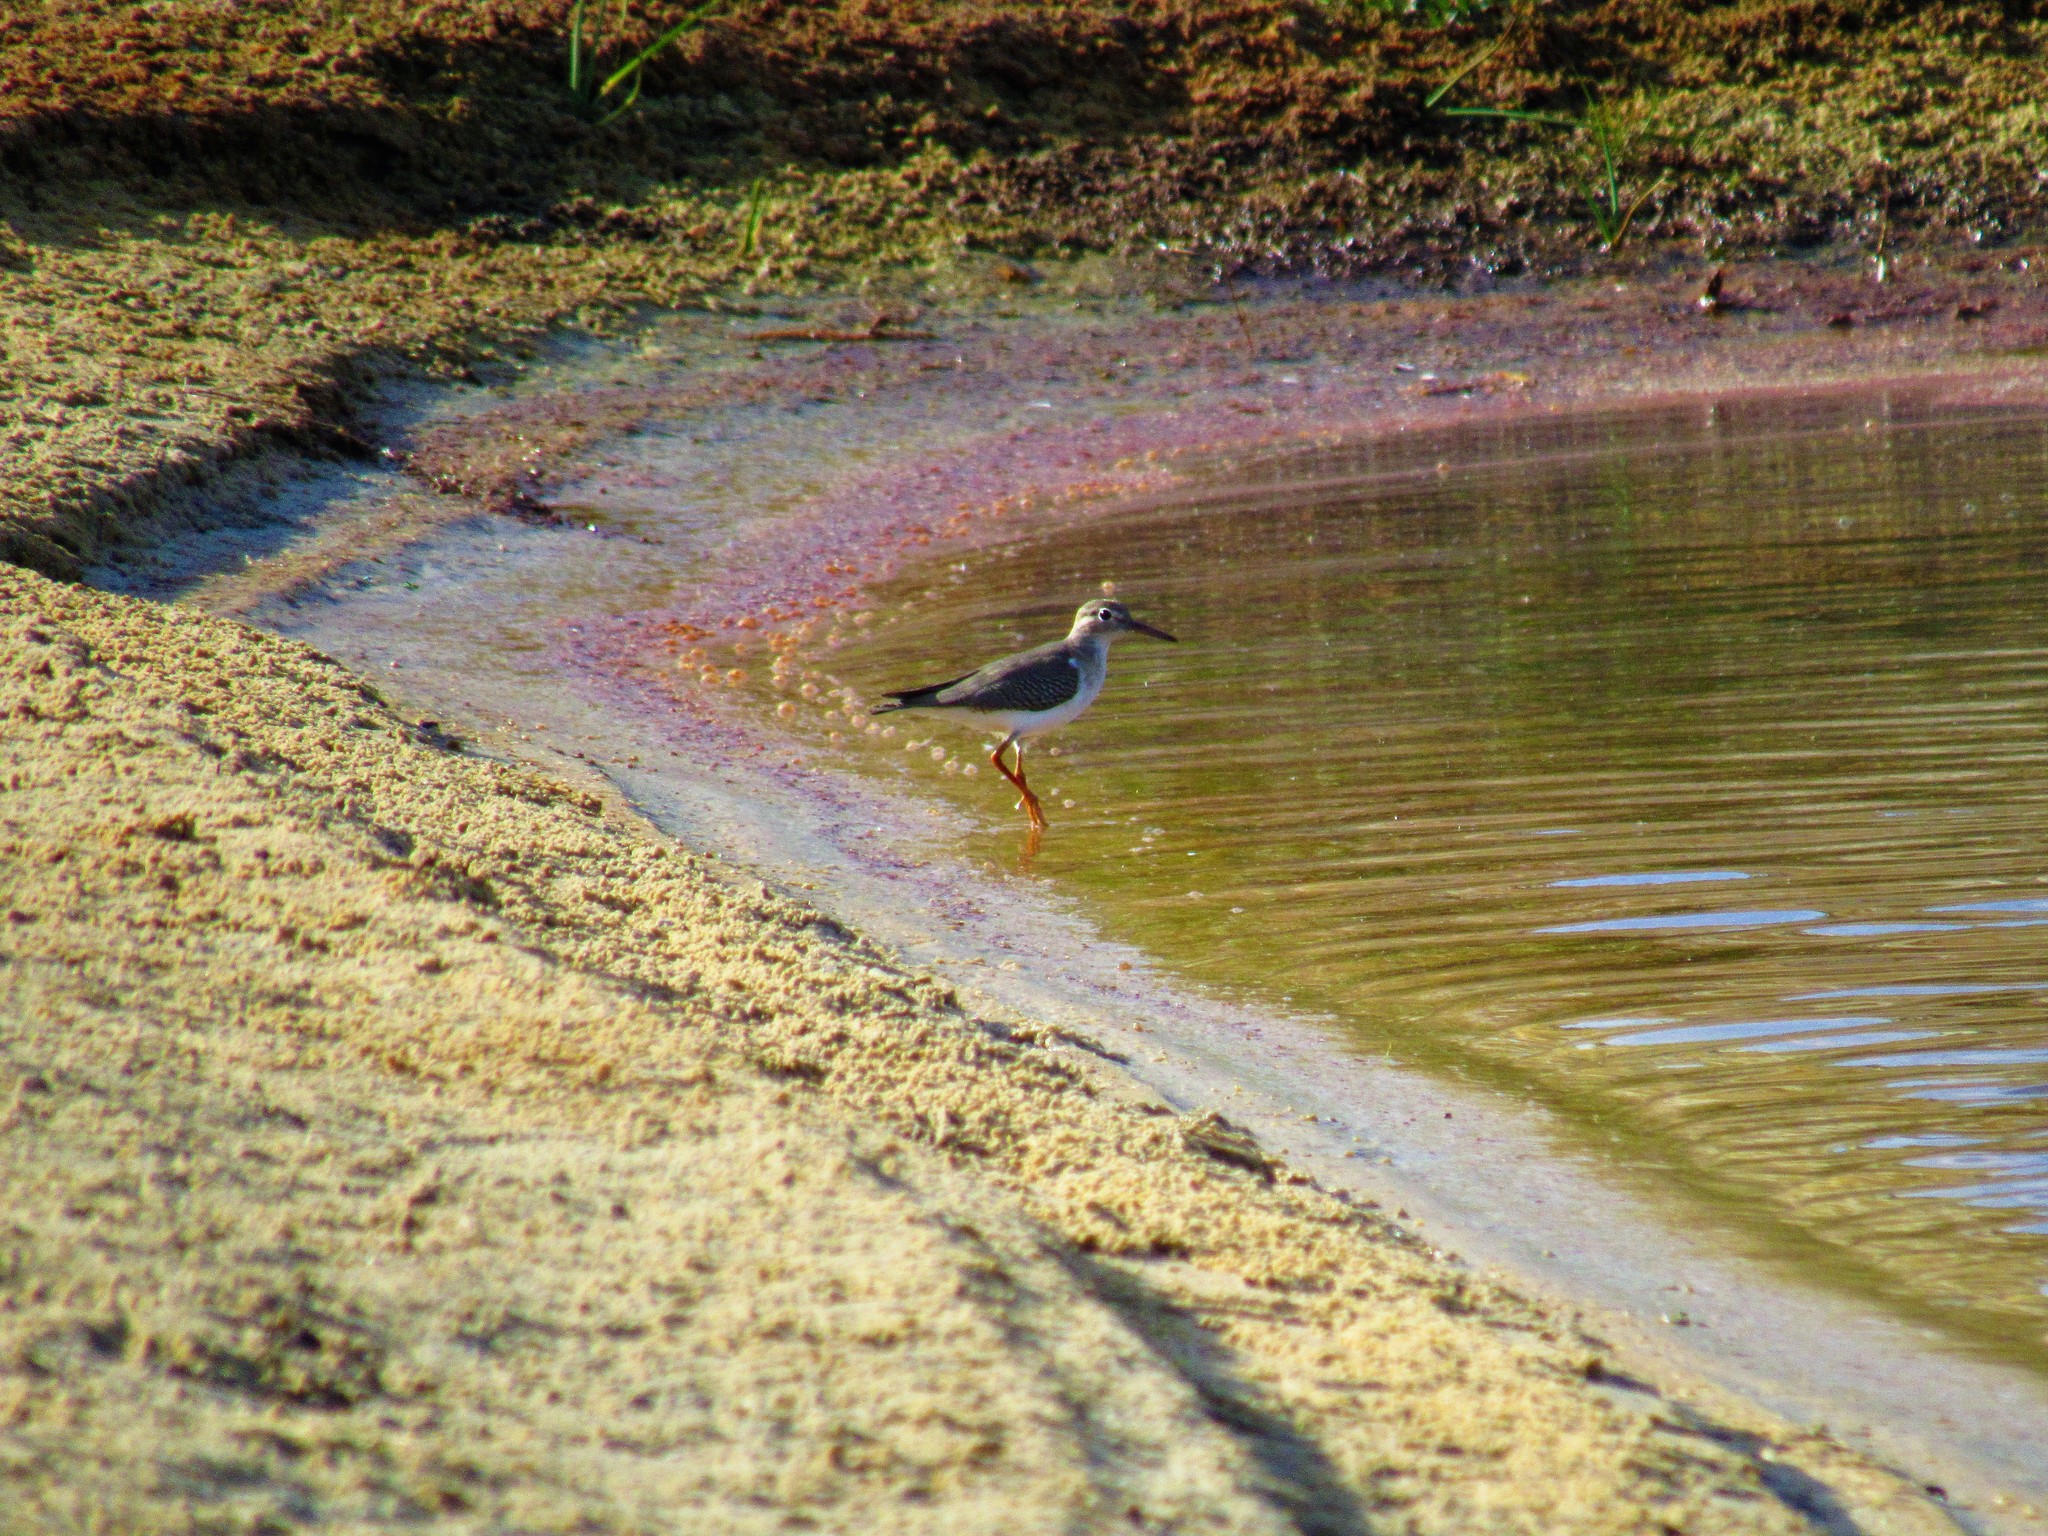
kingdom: Animalia
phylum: Chordata
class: Aves
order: Charadriiformes
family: Scolopacidae
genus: Actitis
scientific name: Actitis macularius
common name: Spotted sandpiper
